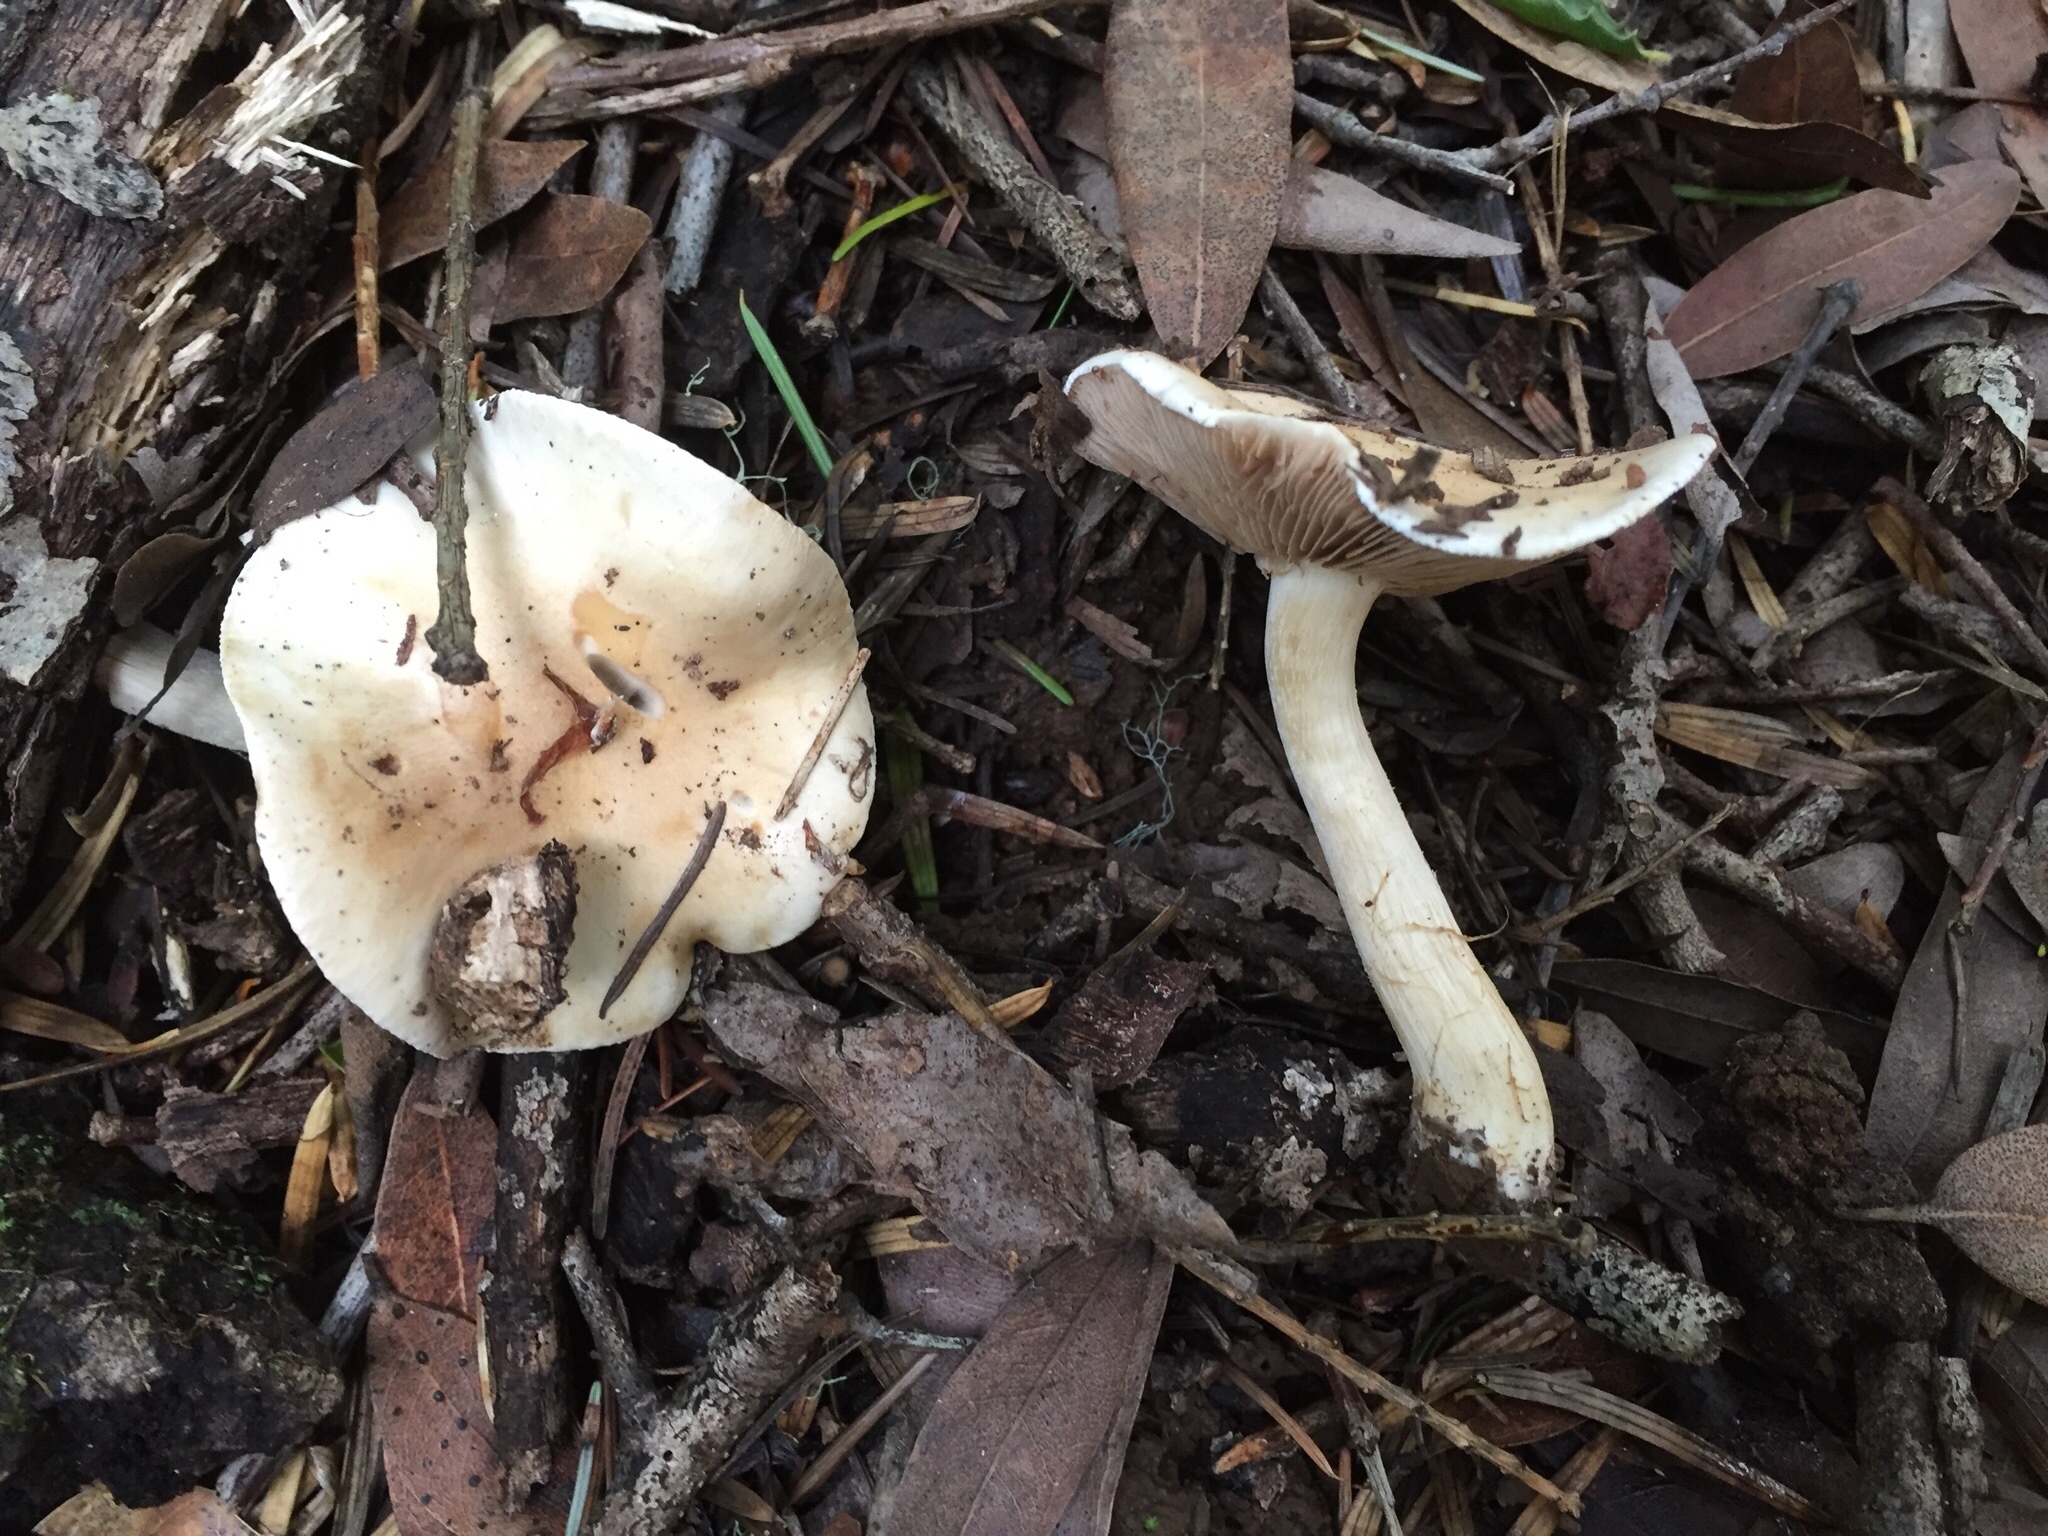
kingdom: Fungi
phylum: Basidiomycota
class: Agaricomycetes
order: Agaricales
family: Hymenogastraceae
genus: Hebeloma
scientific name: Hebeloma leucosarx
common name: Birch poisonpie
